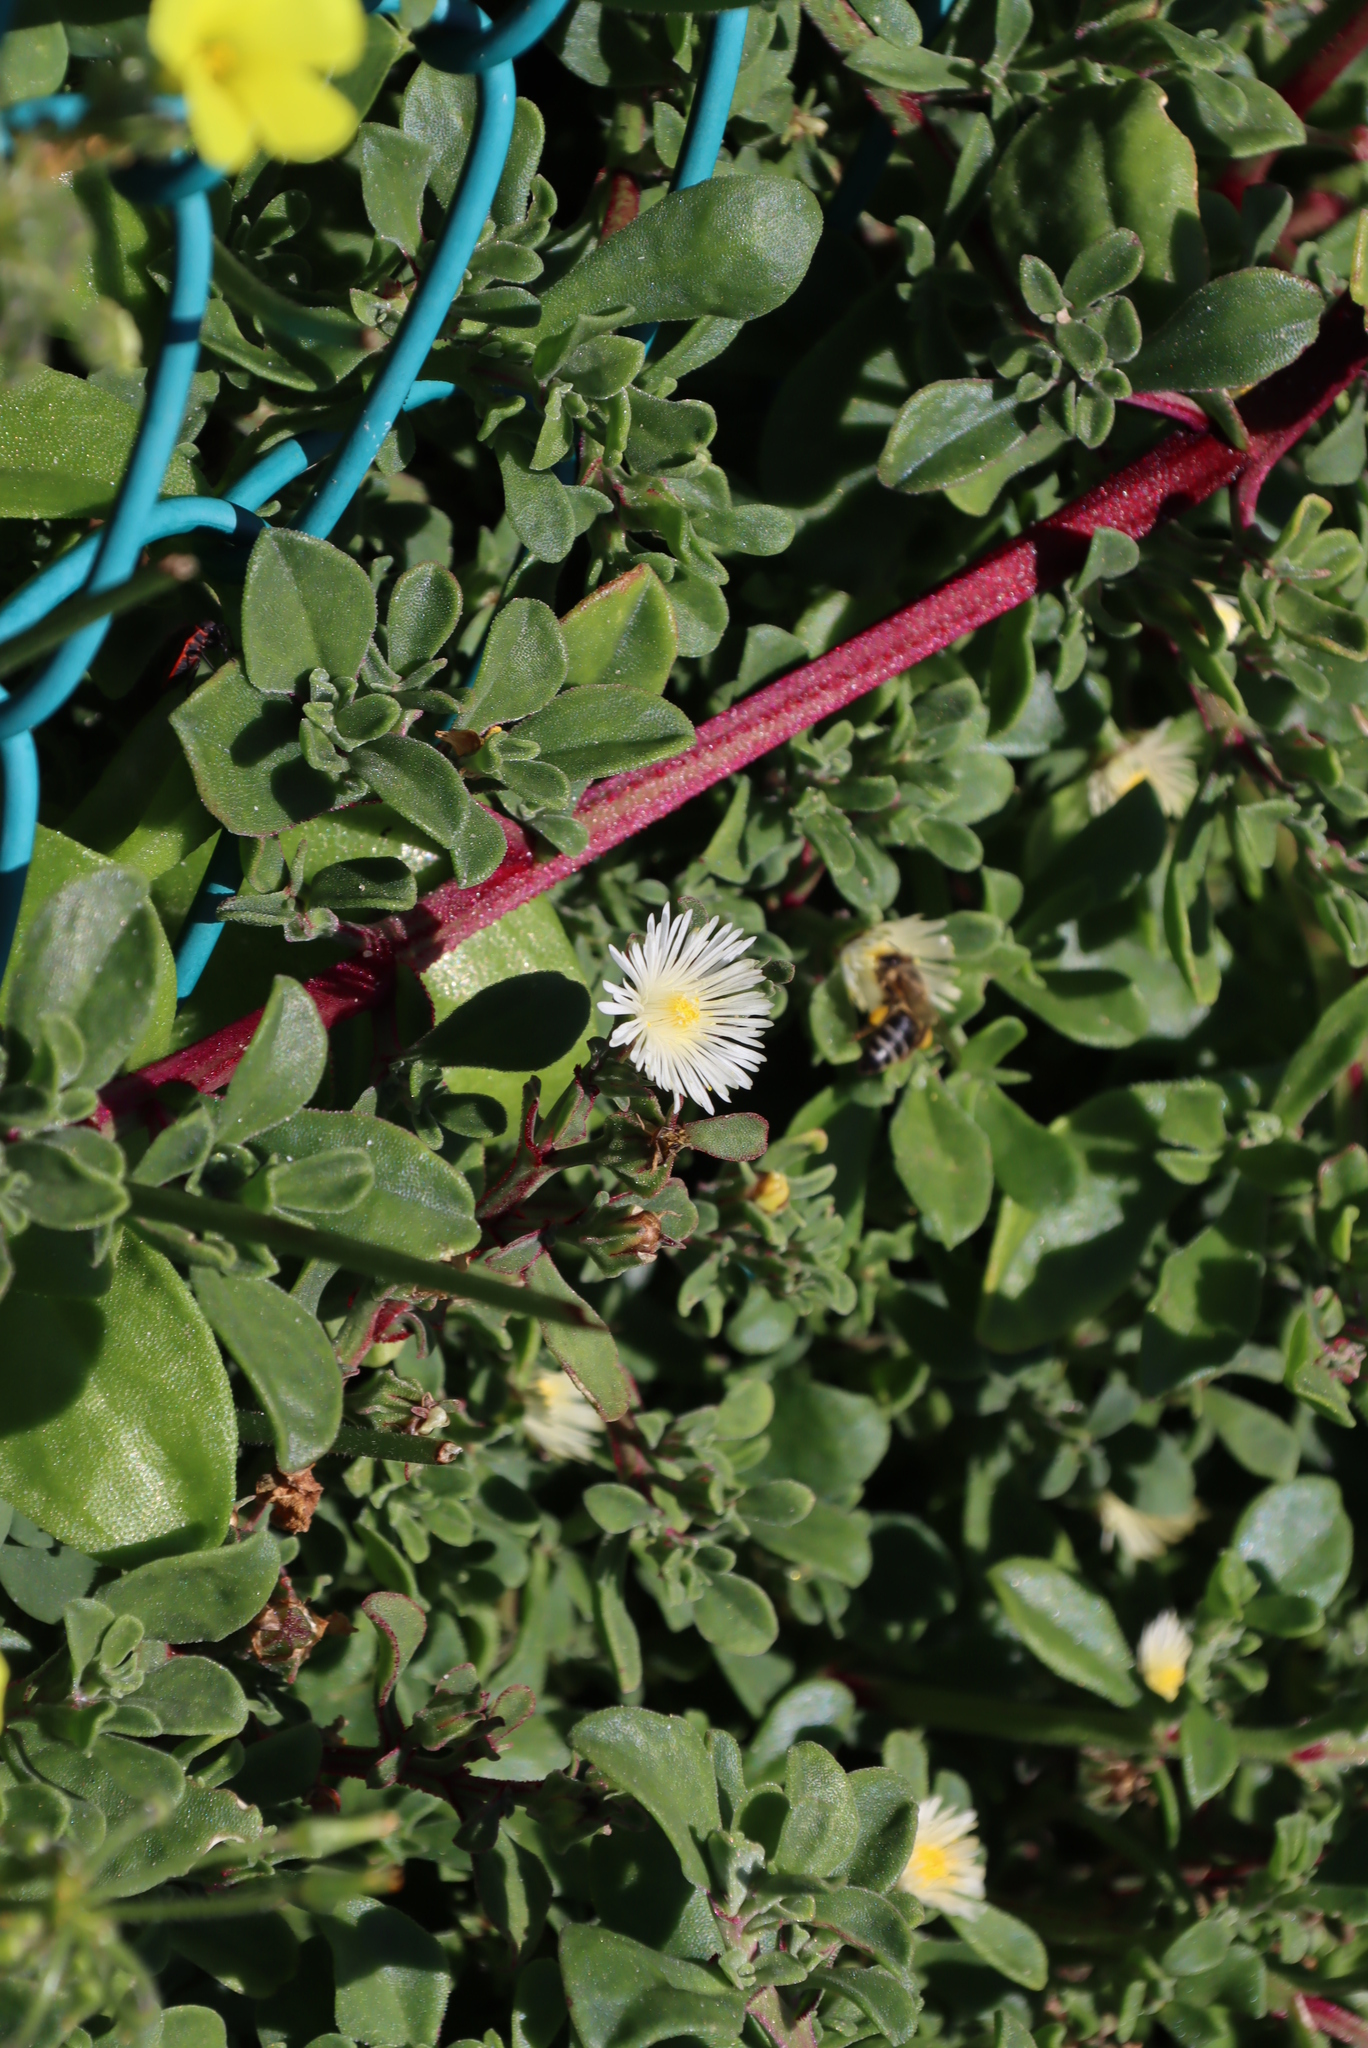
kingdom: Plantae
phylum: Tracheophyta
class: Magnoliopsida
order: Caryophyllales
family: Aizoaceae
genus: Mesembryanthemum
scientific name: Mesembryanthemum aitonis
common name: Angled iceplant
